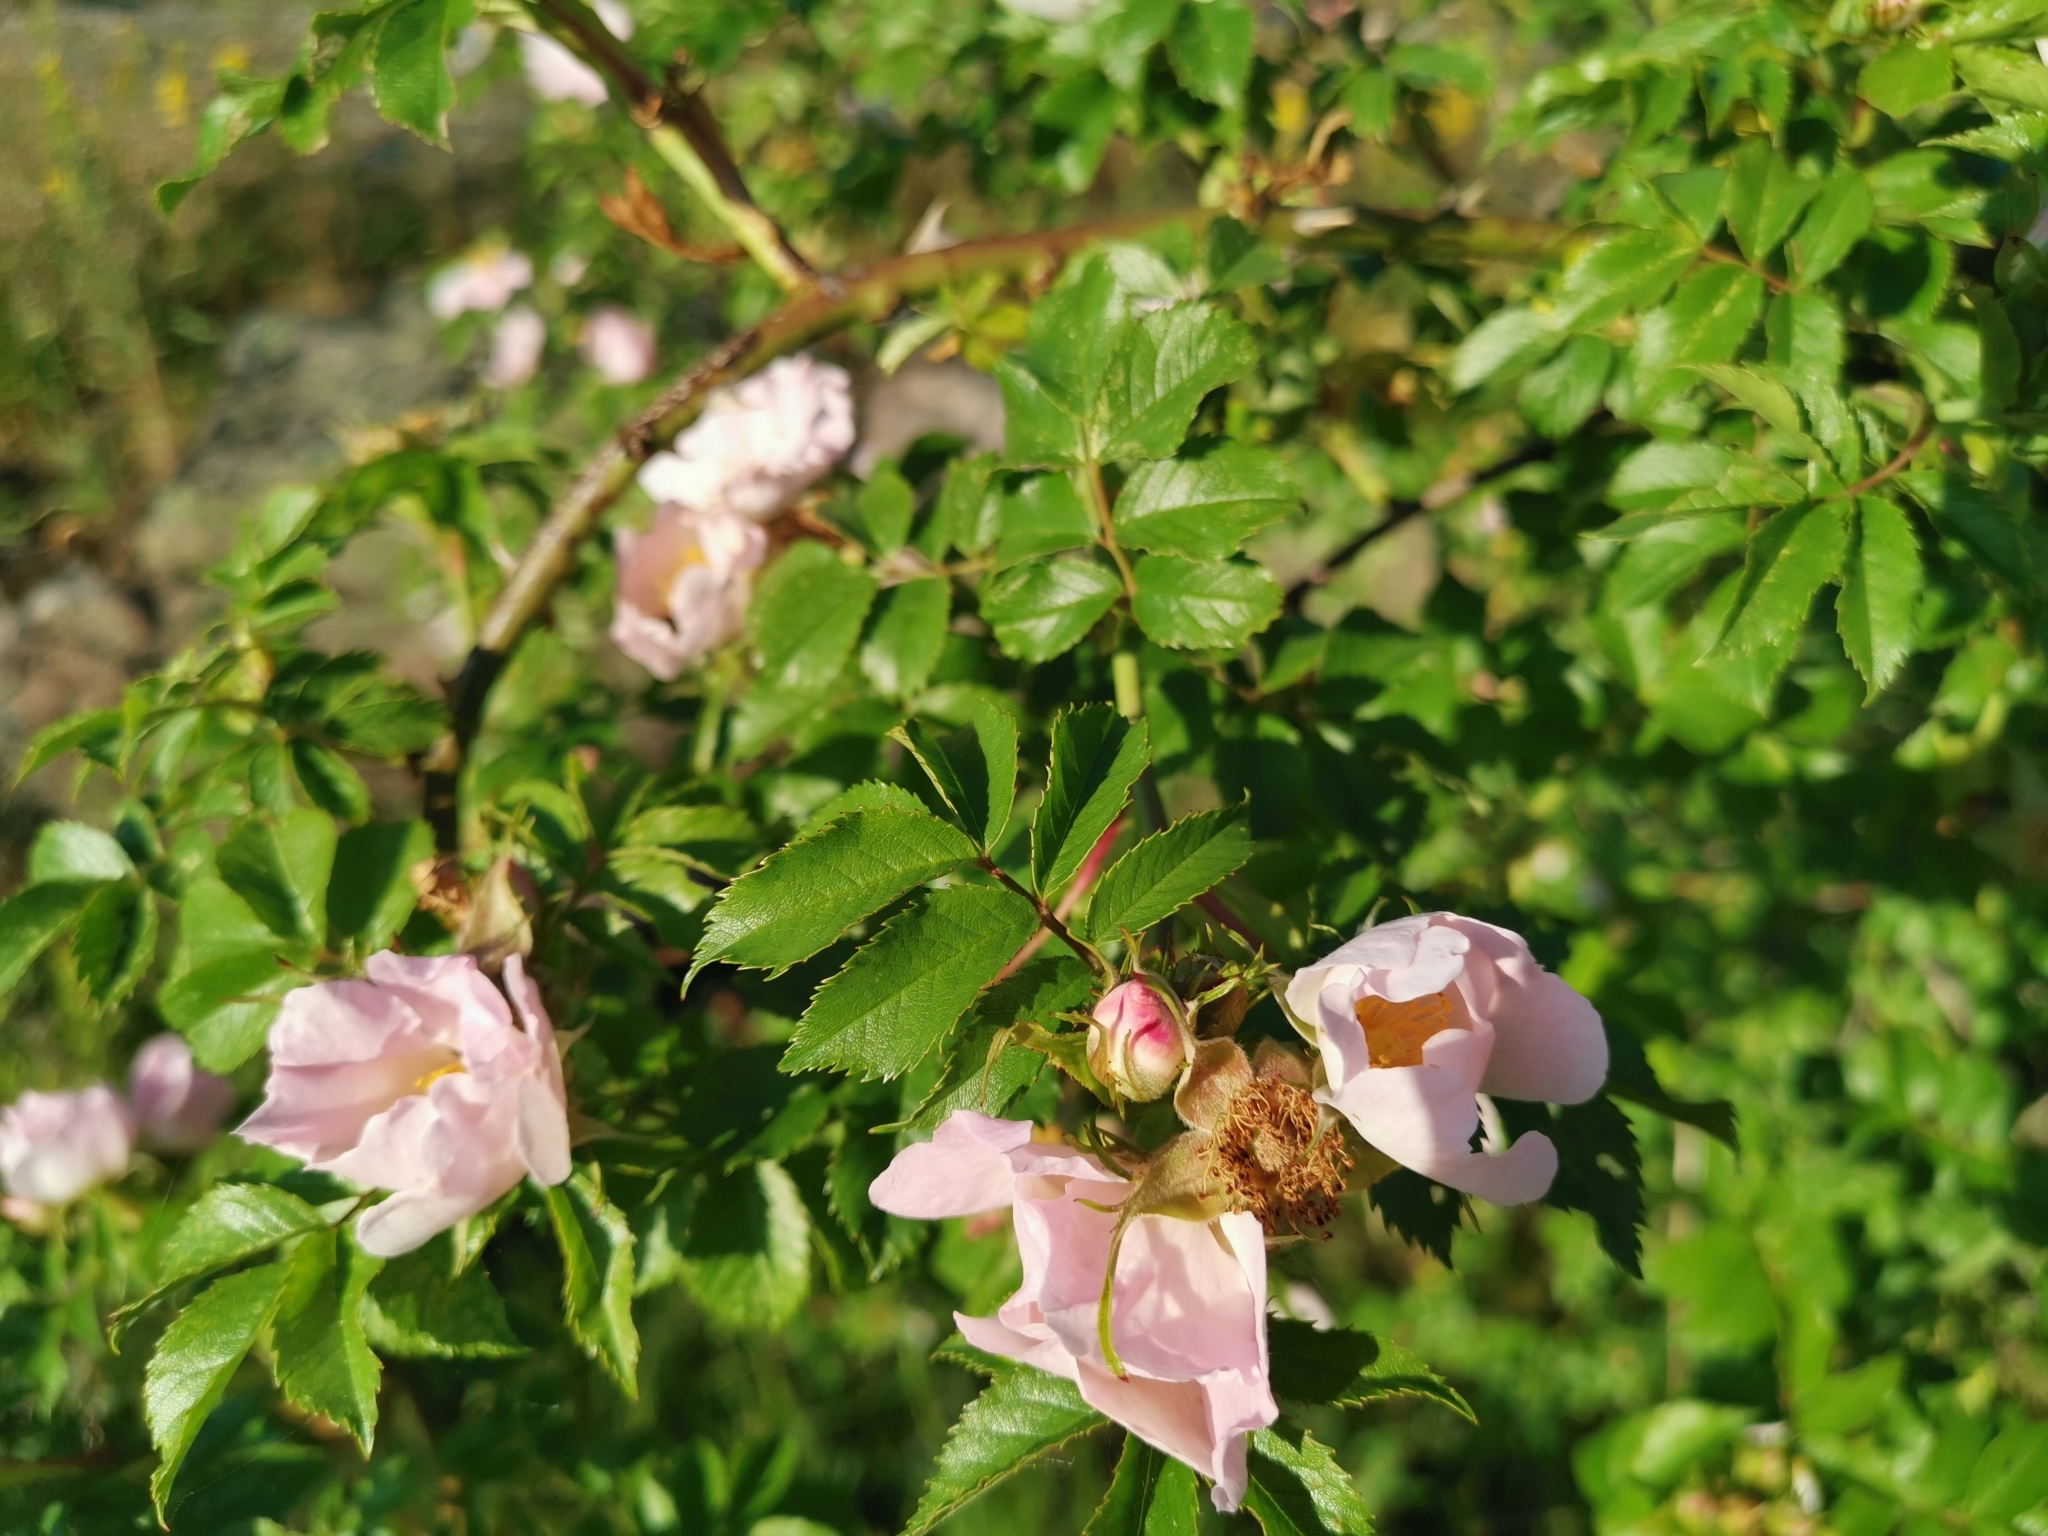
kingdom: Plantae
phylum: Tracheophyta
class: Magnoliopsida
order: Rosales
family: Rosaceae
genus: Rosa
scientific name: Rosa canina
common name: Dog rose
